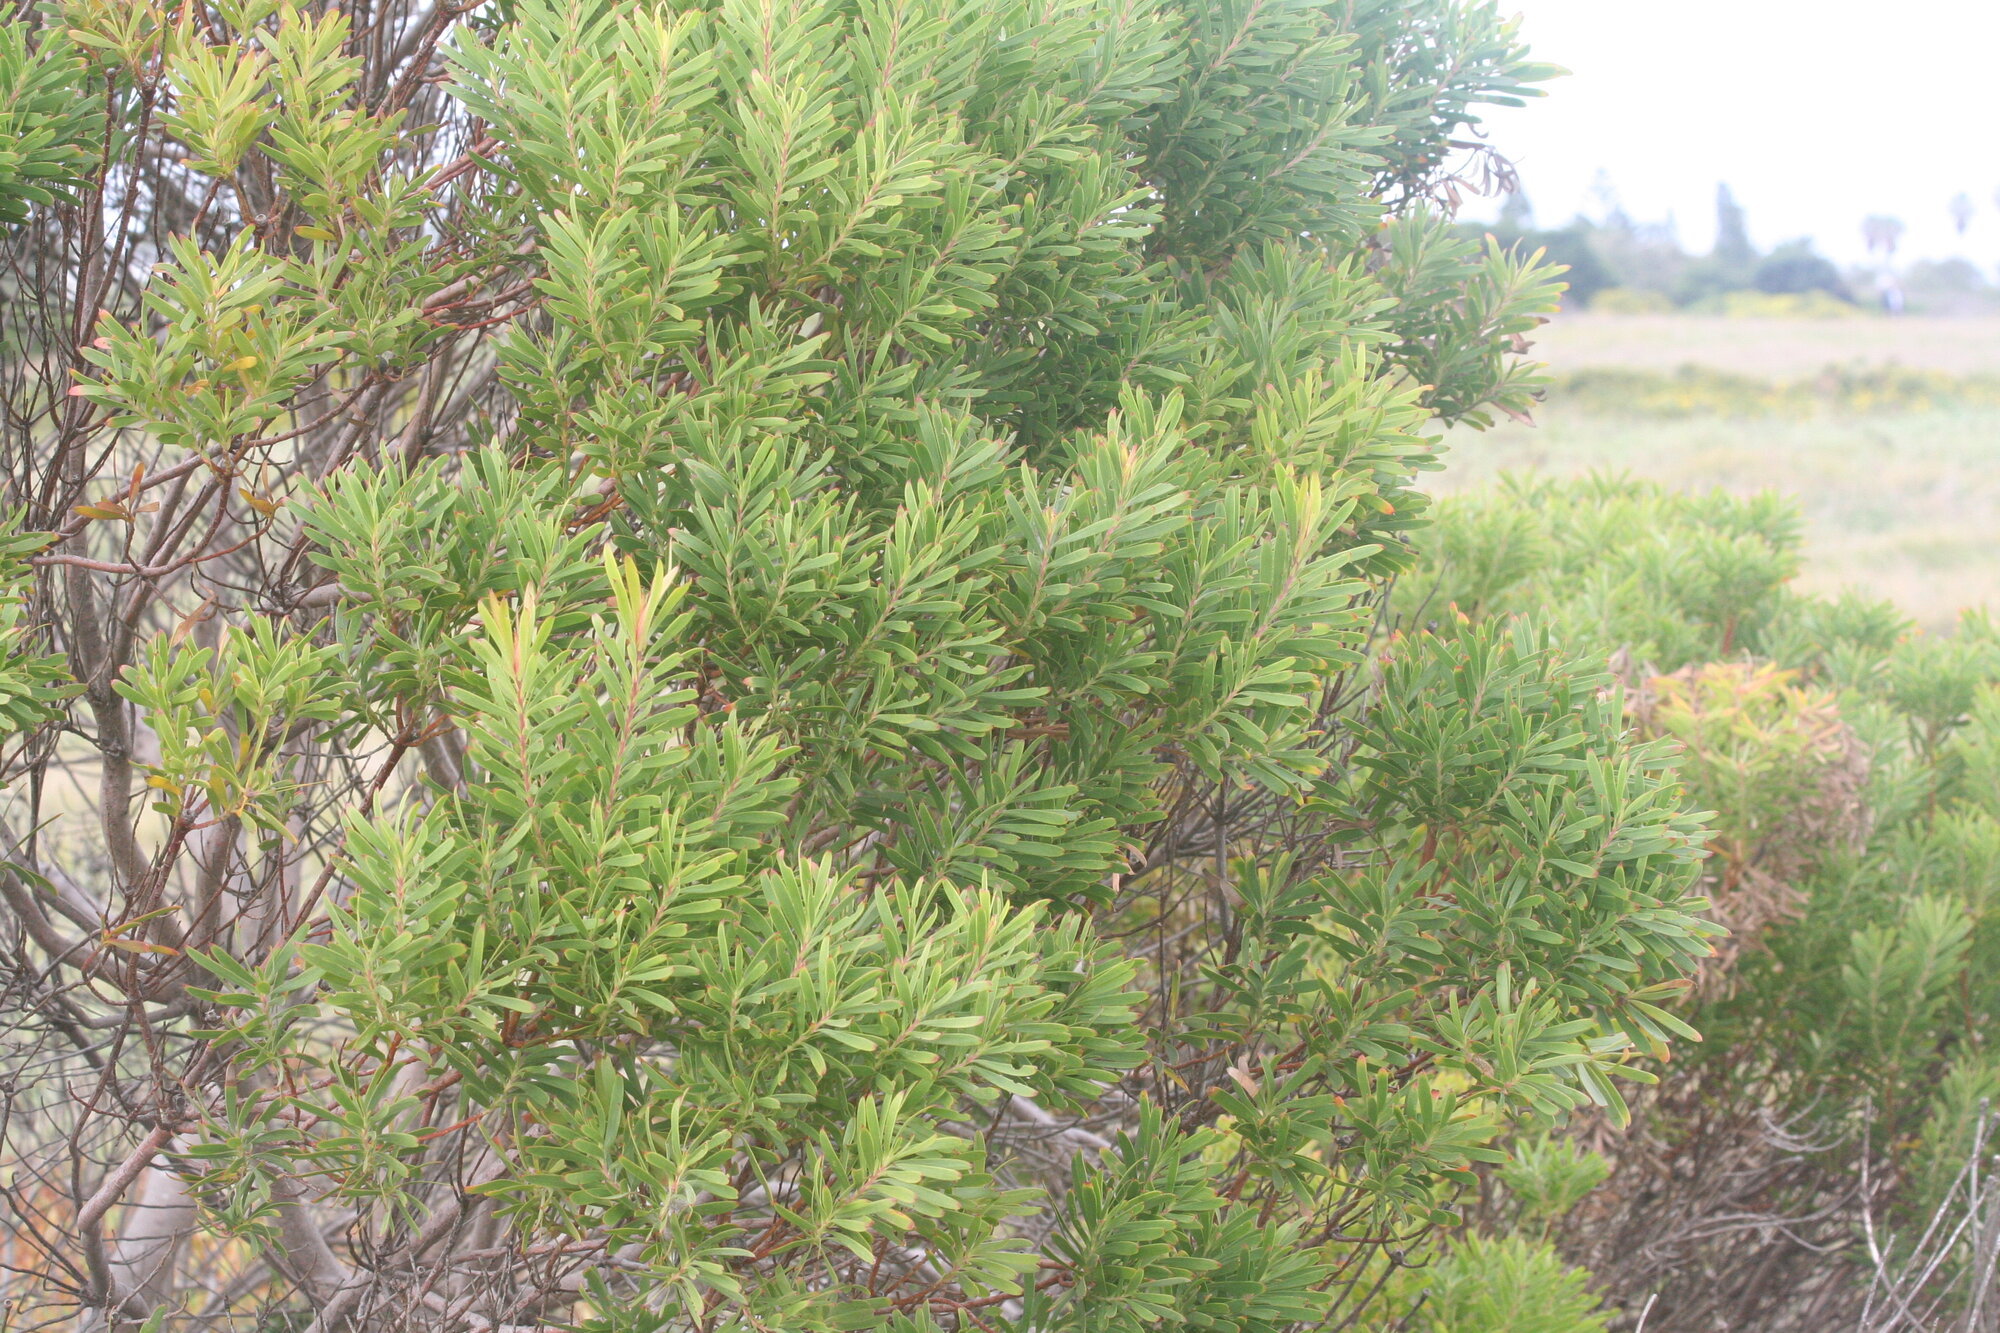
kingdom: Plantae
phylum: Tracheophyta
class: Magnoliopsida
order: Proteales
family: Proteaceae
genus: Leucadendron
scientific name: Leucadendron coniferum
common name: Dune conebush
